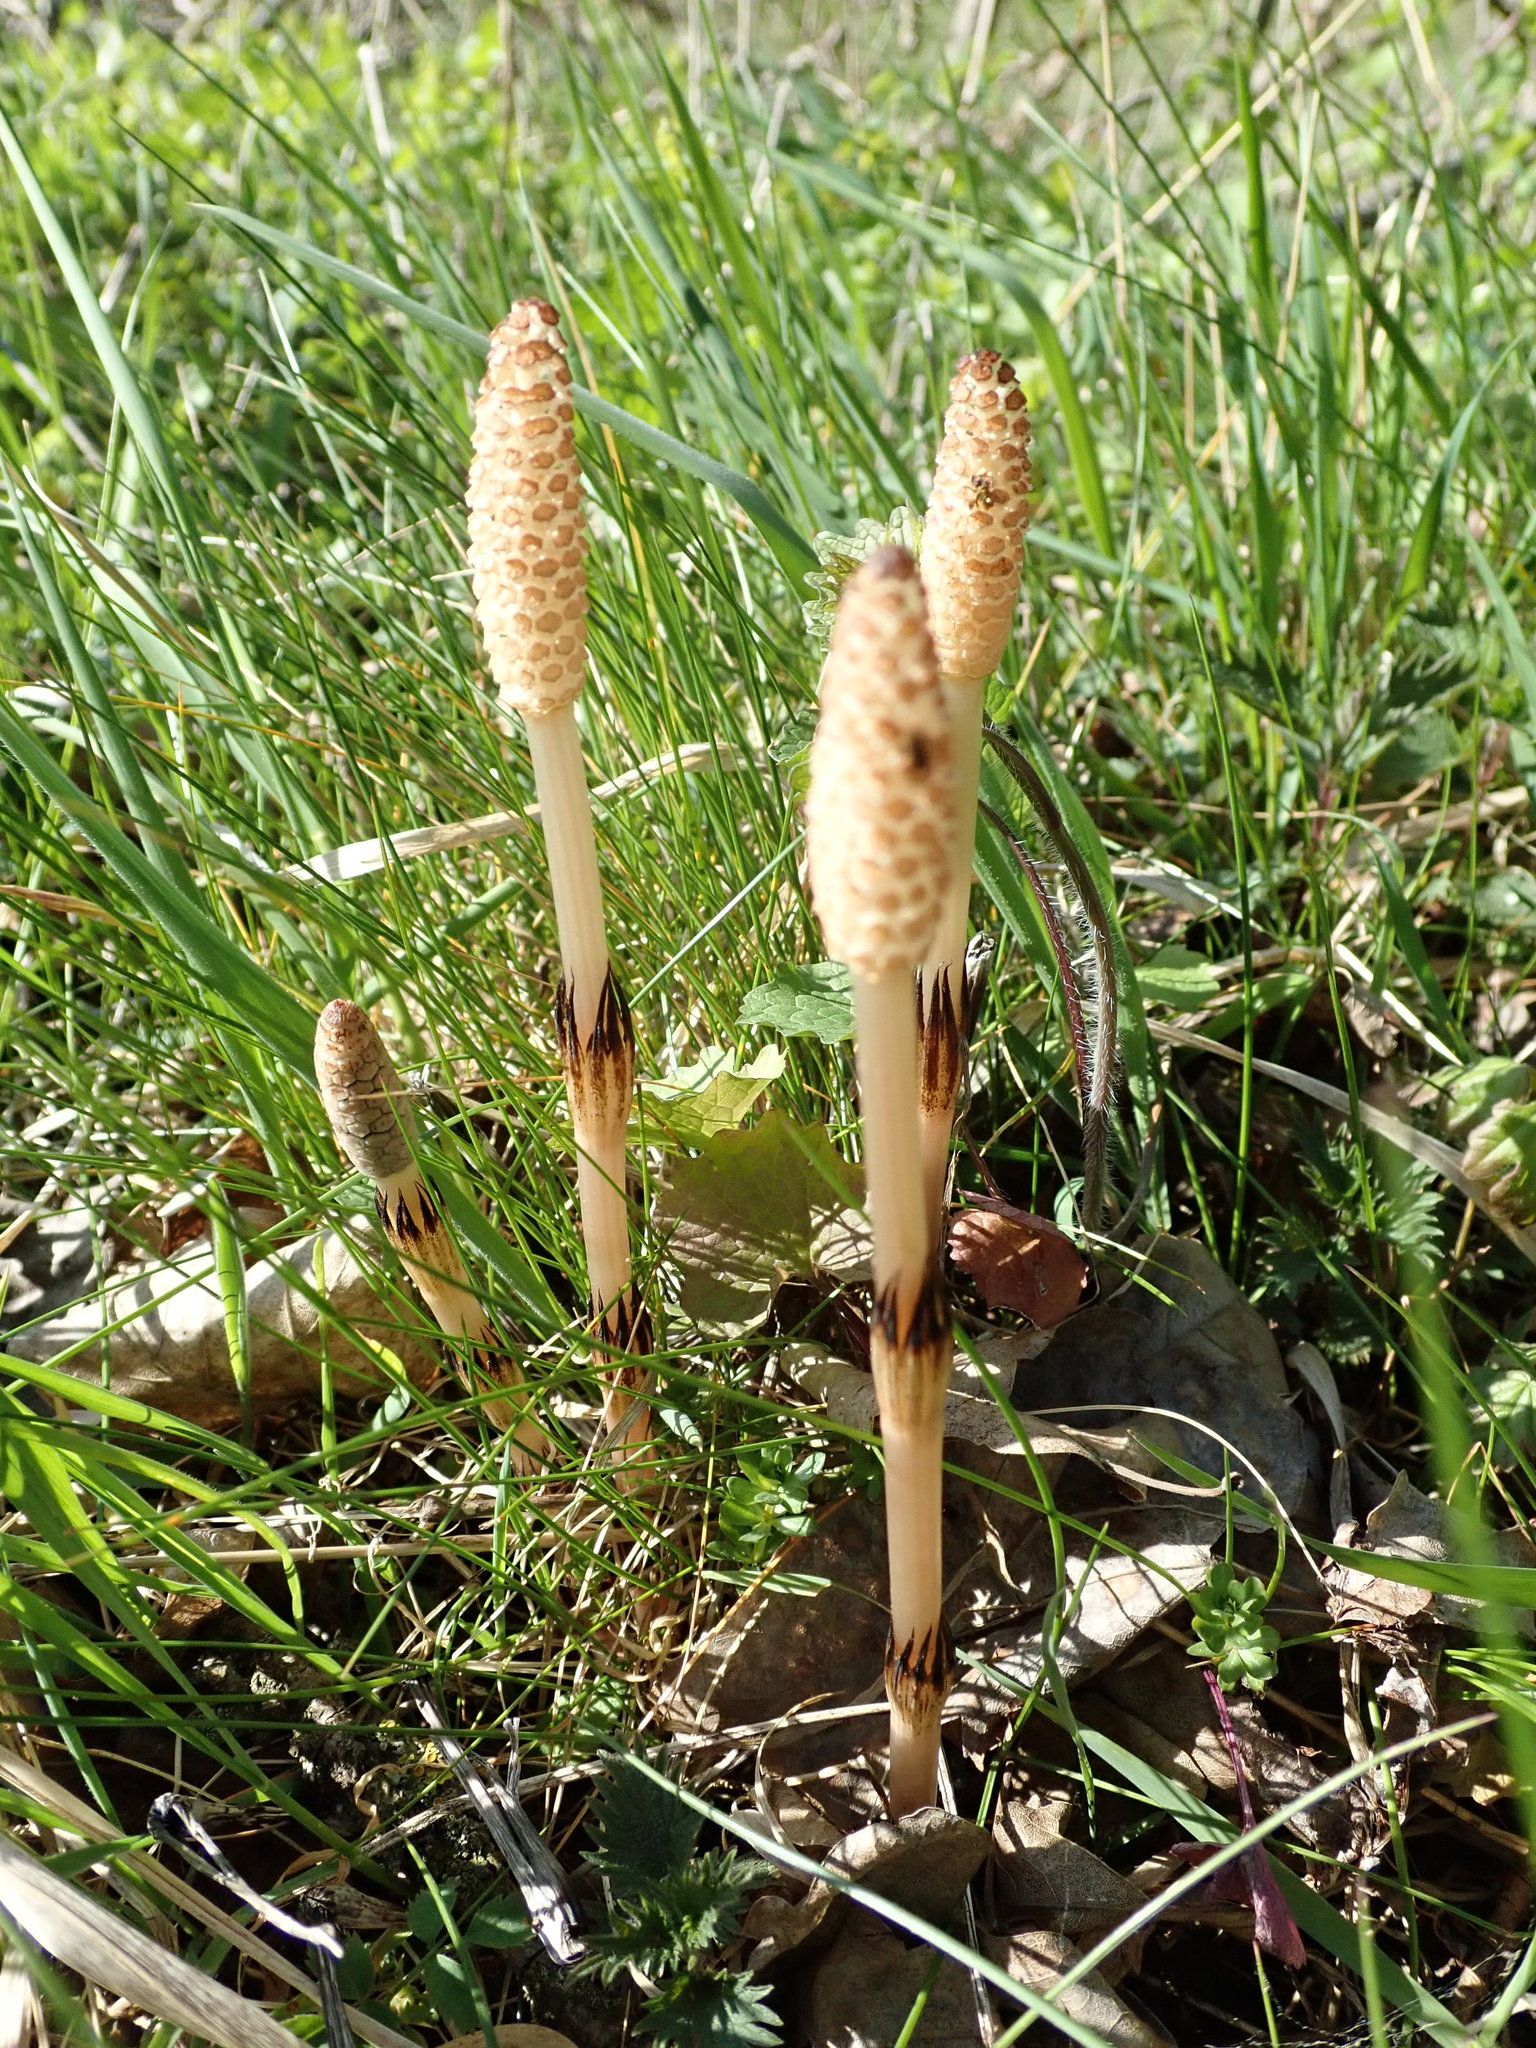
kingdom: Plantae
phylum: Tracheophyta
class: Polypodiopsida
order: Equisetales
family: Equisetaceae
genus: Equisetum
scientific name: Equisetum arvense
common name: Field horsetail
